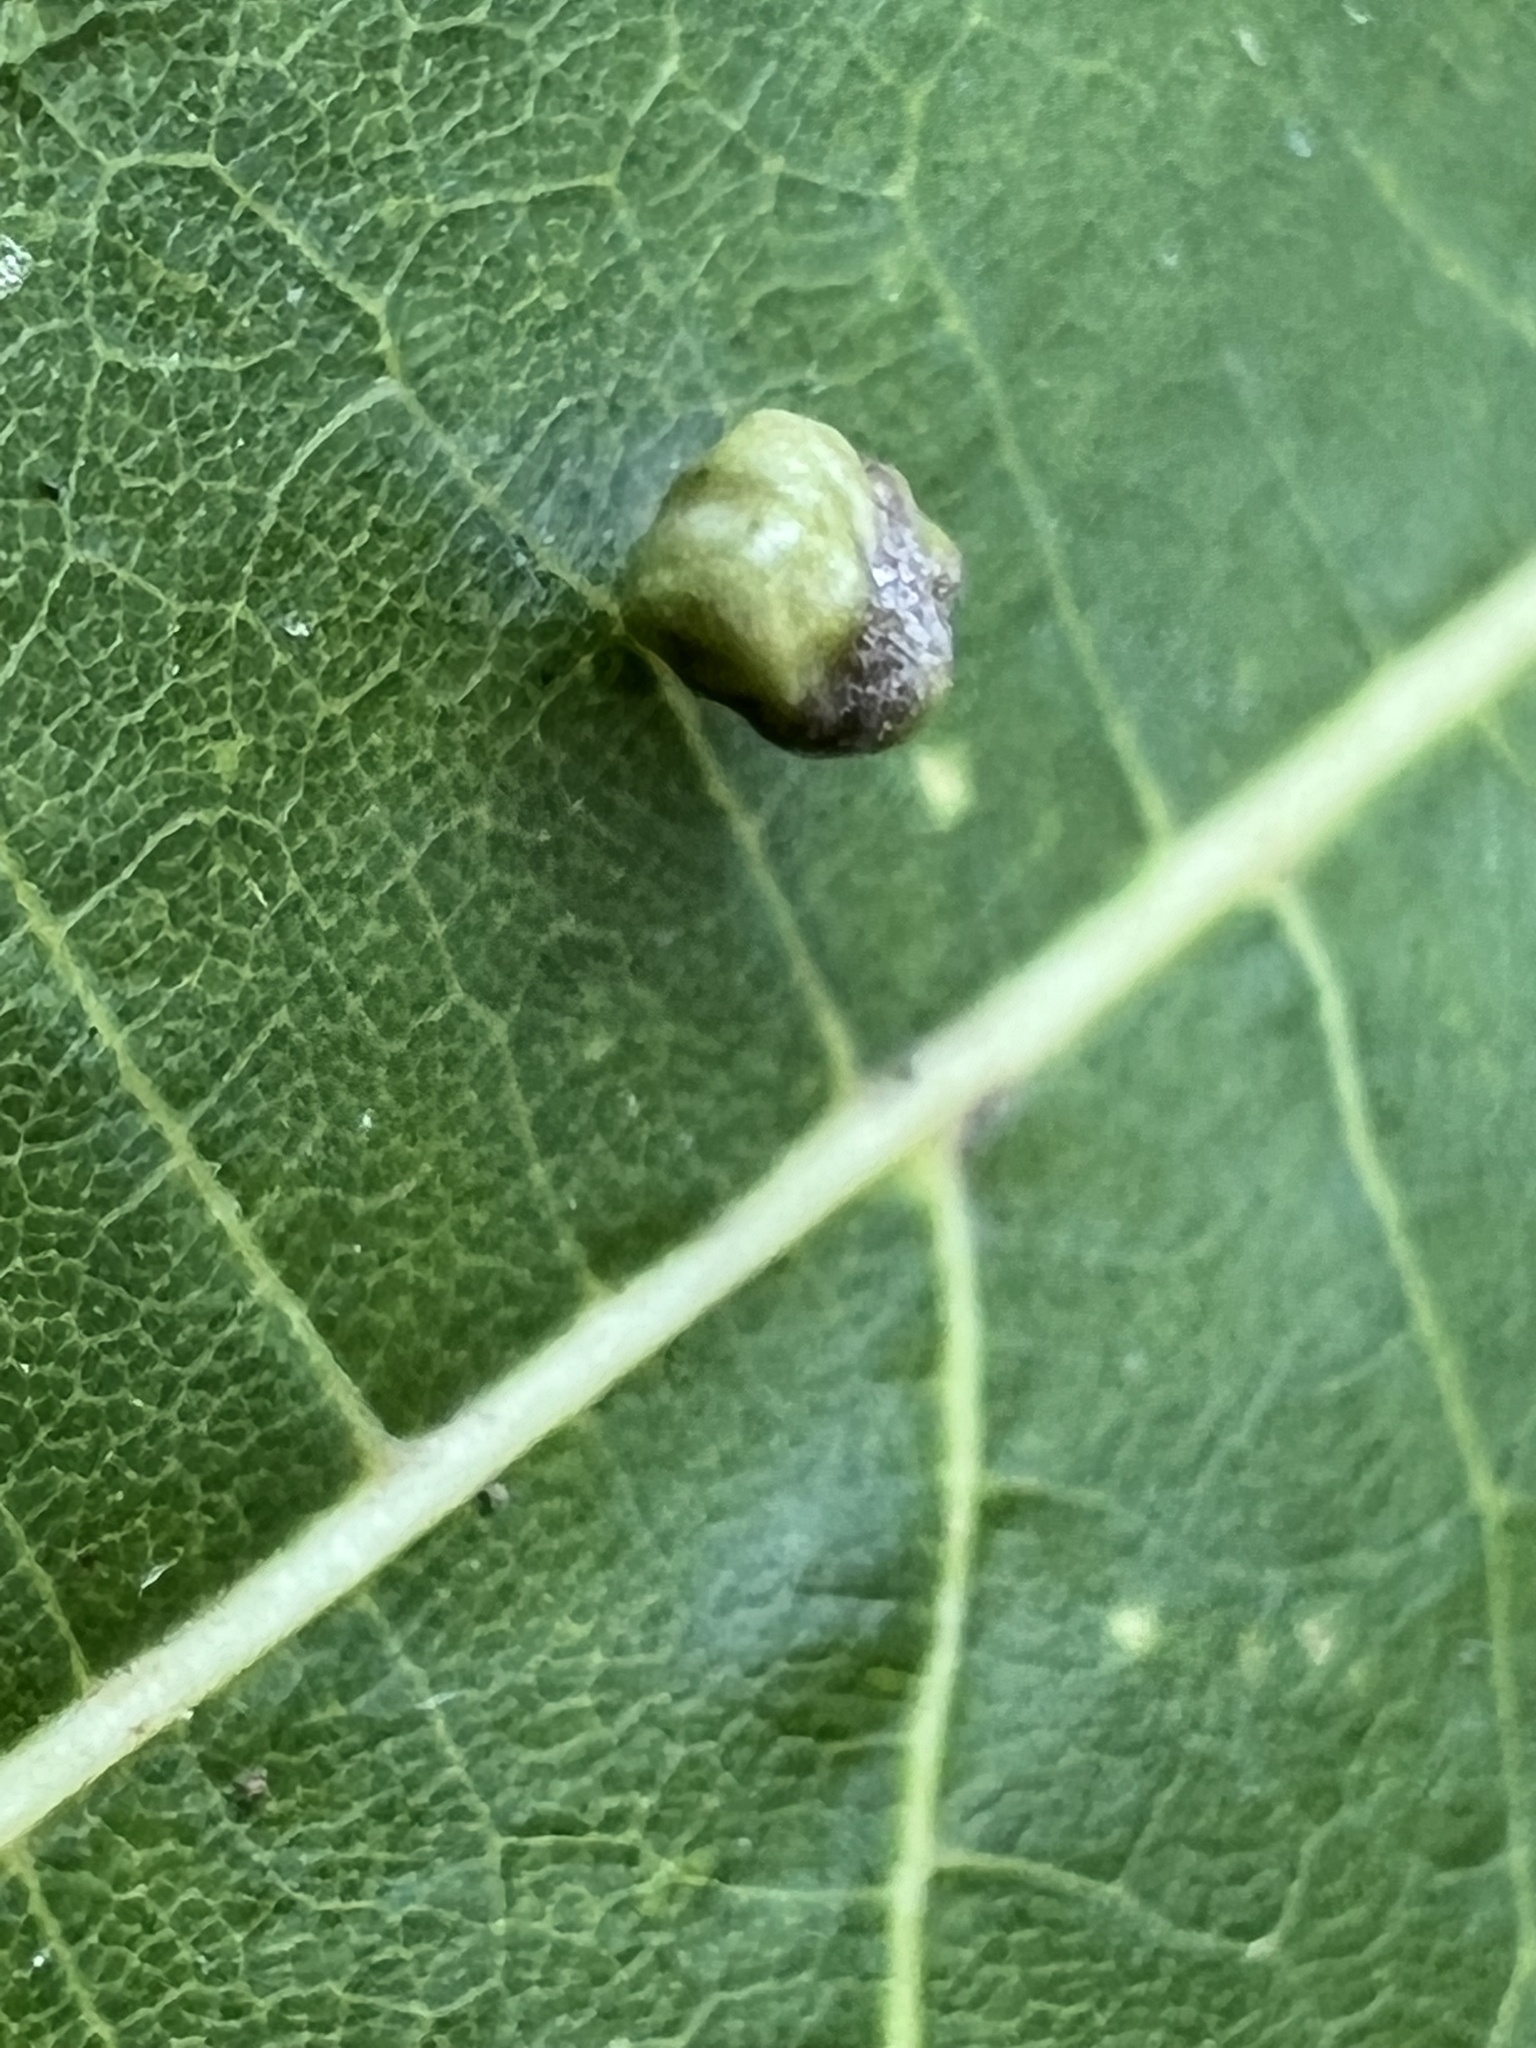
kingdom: Animalia
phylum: Arthropoda
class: Arachnida
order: Trombidiformes
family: Eriophyidae
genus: Vasates
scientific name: Vasates quadripedes
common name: Maple bladder gall mite
